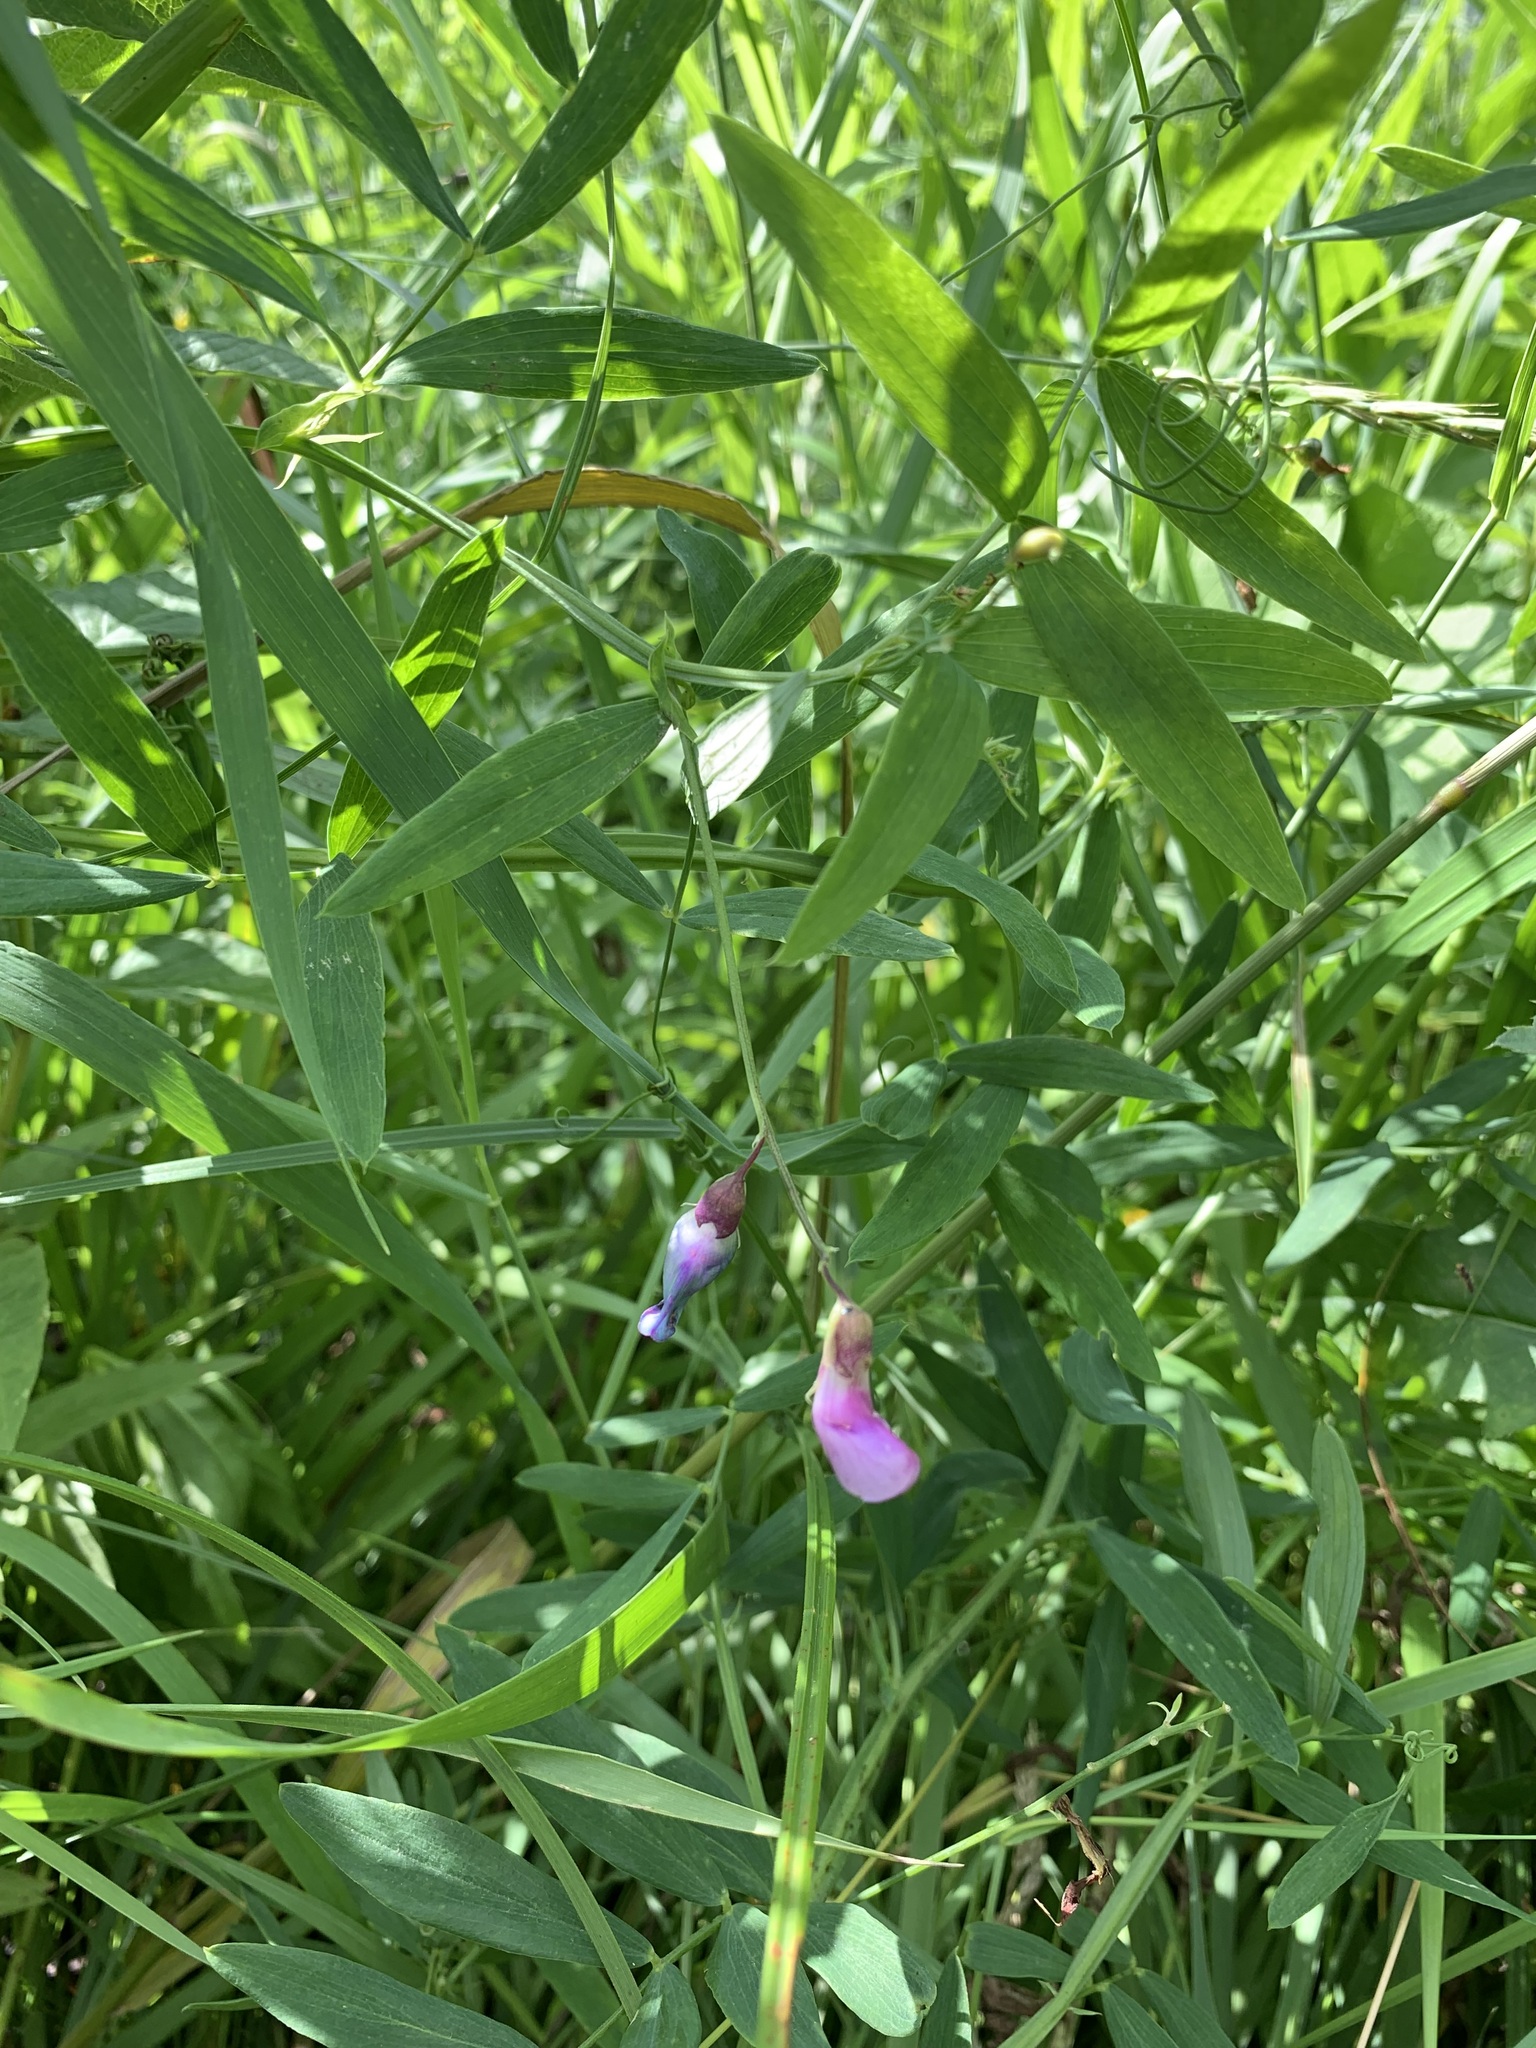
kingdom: Plantae
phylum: Tracheophyta
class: Magnoliopsida
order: Fabales
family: Fabaceae
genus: Lathyrus
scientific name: Lathyrus palustris
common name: Marsh pea
